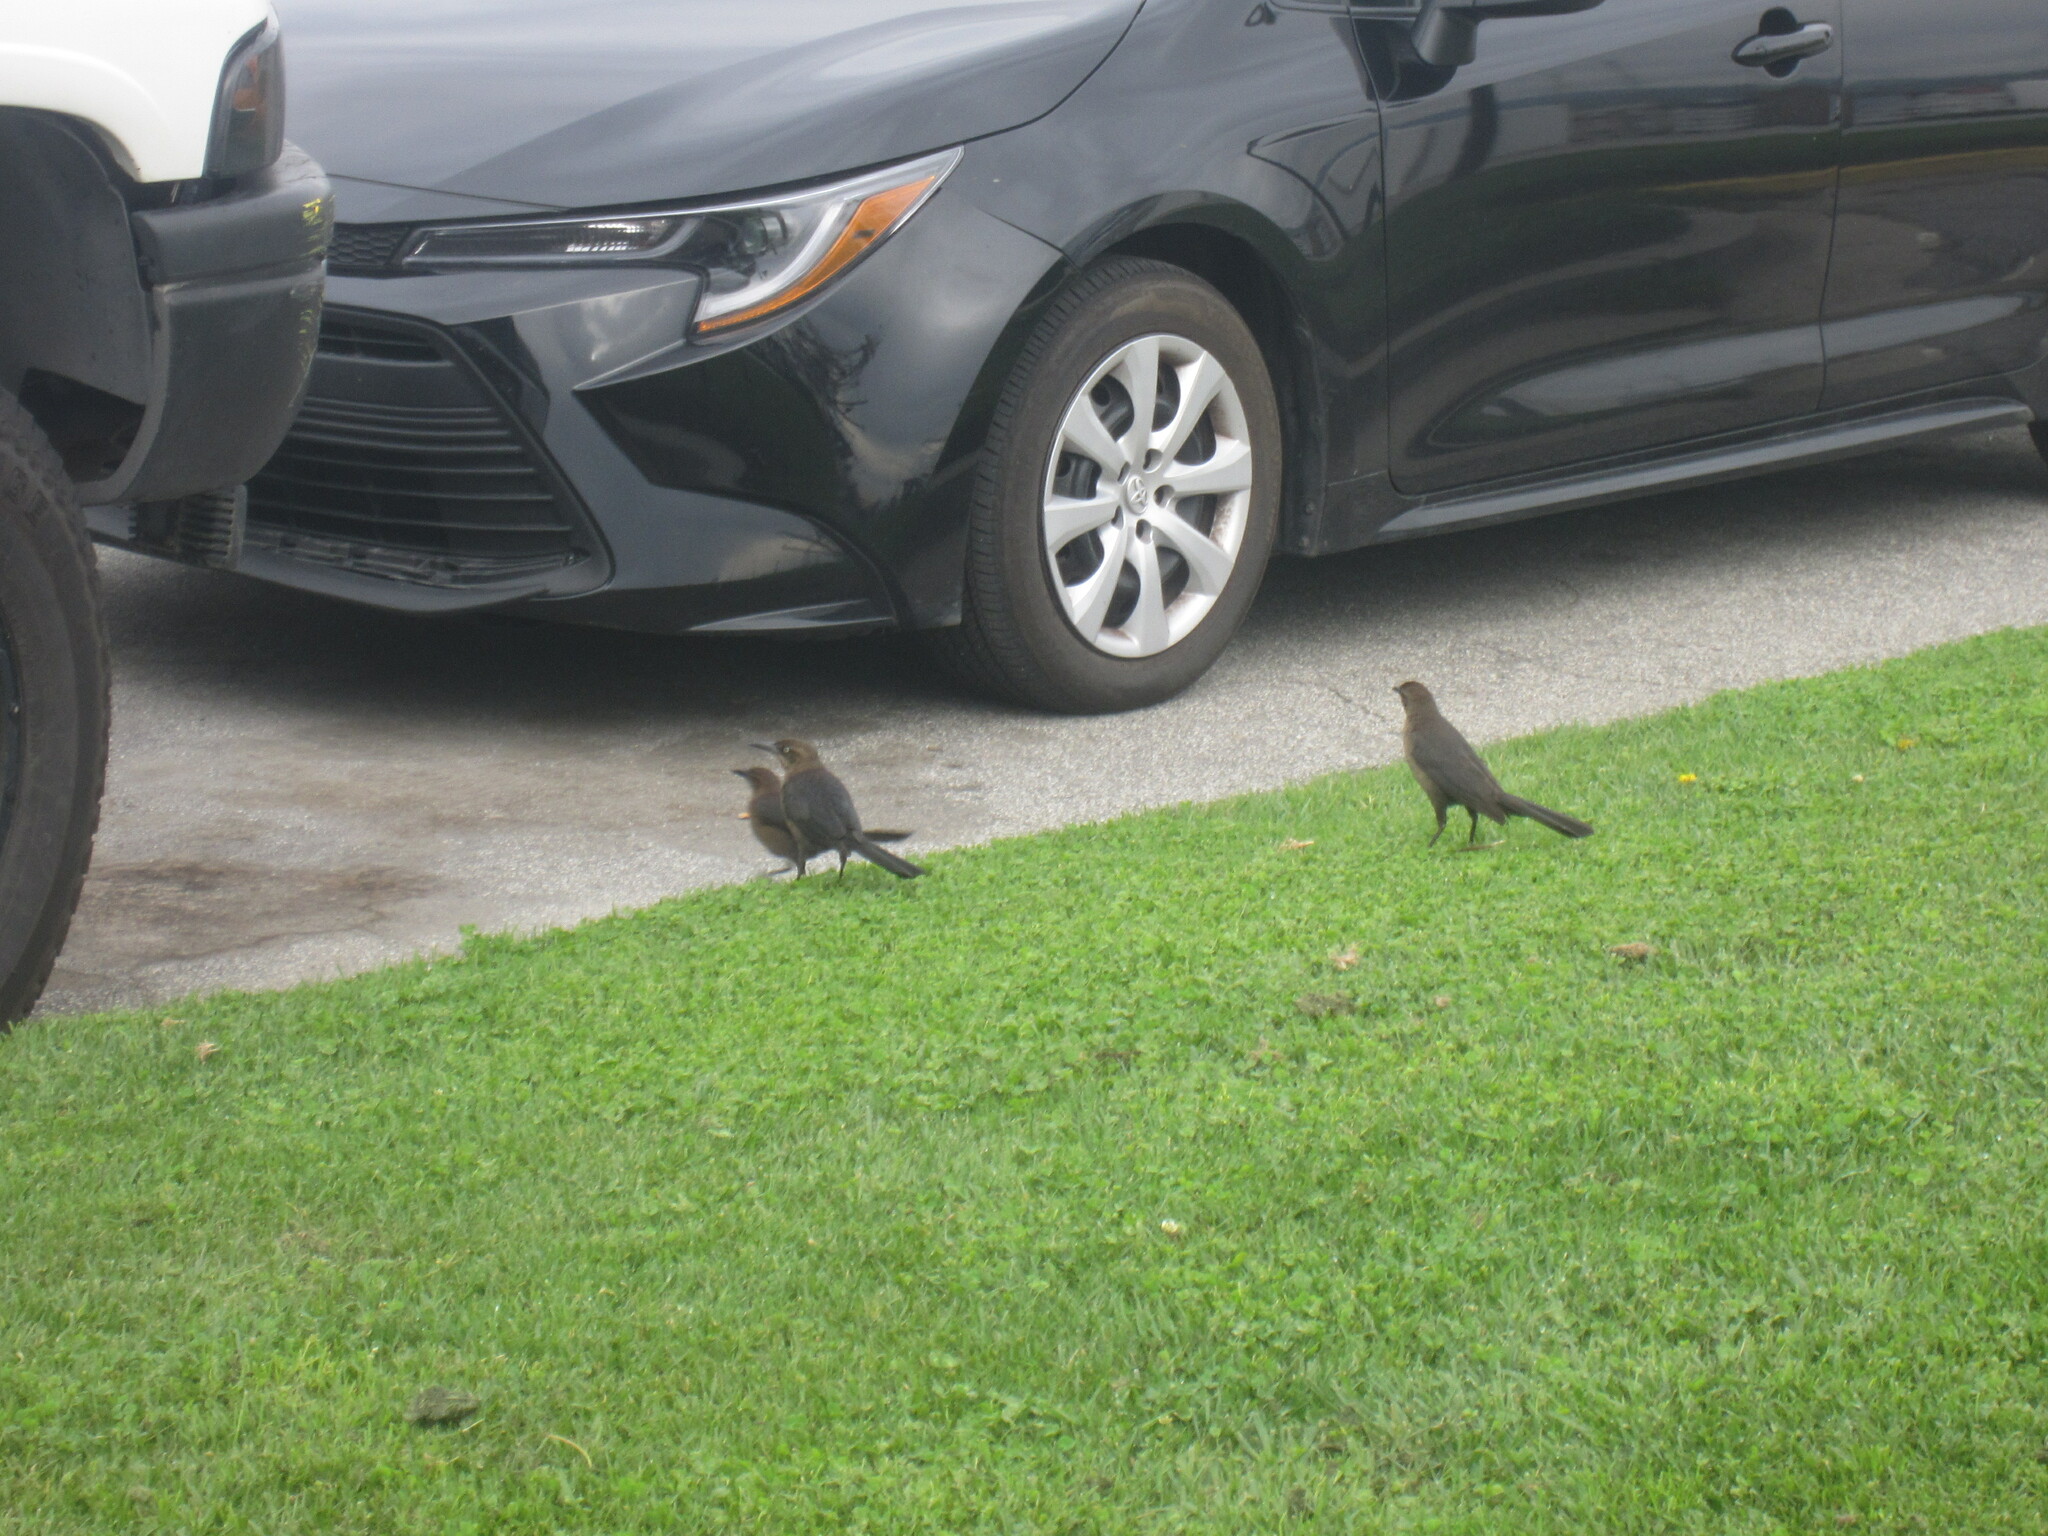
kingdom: Animalia
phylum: Chordata
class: Aves
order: Passeriformes
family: Icteridae
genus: Quiscalus
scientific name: Quiscalus mexicanus
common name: Great-tailed grackle
